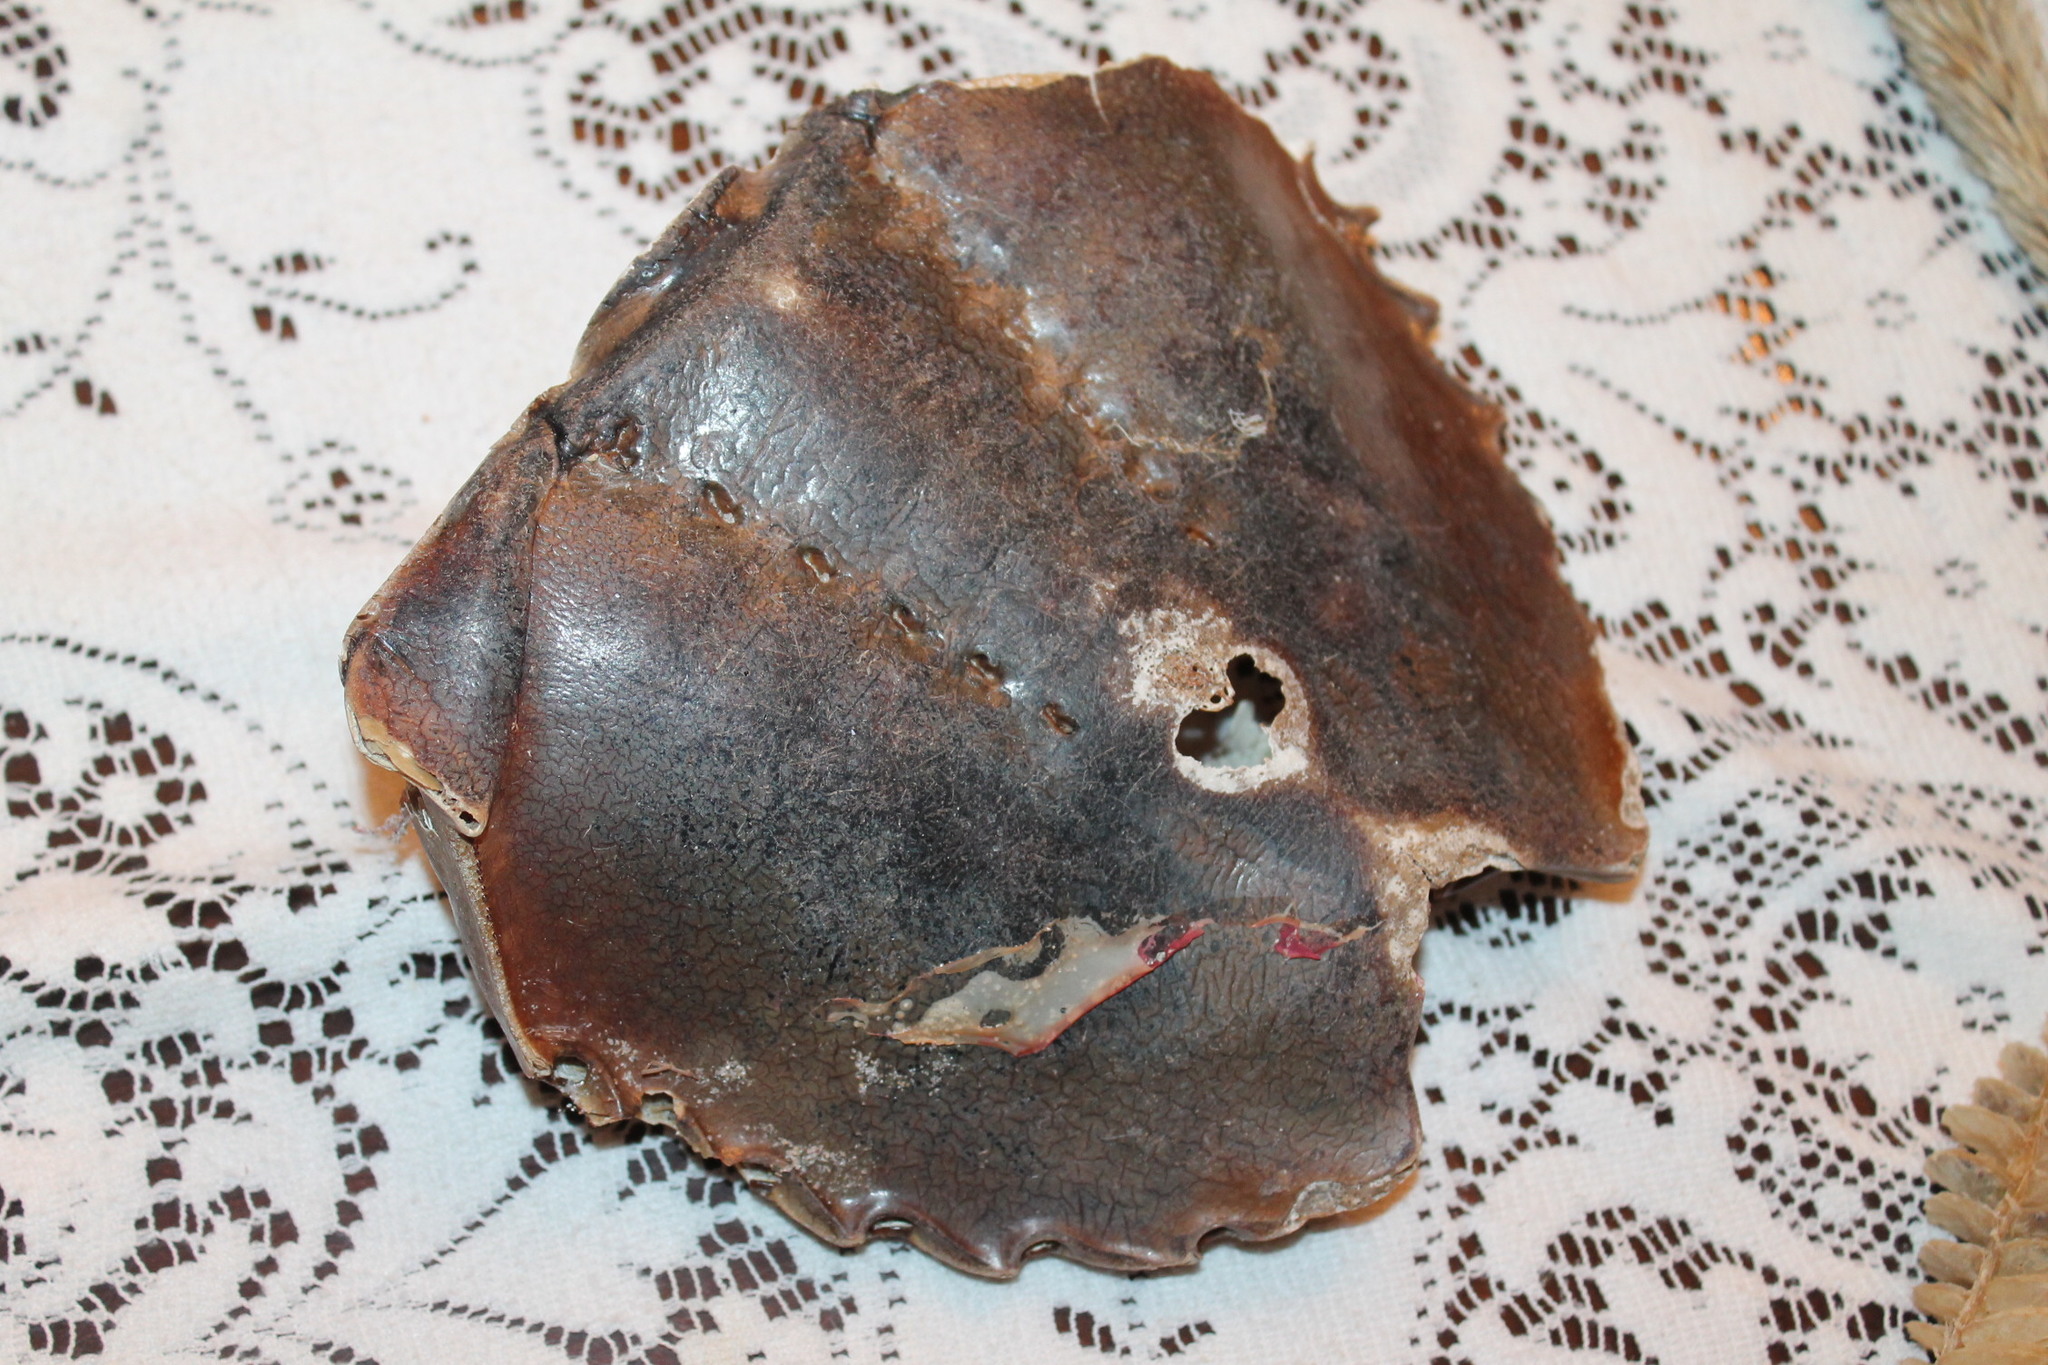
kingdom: Animalia
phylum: Arthropoda
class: Merostomata
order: Xiphosurida
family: Limulidae
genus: Limulus
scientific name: Limulus polyphemus
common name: Horseshoe crab
